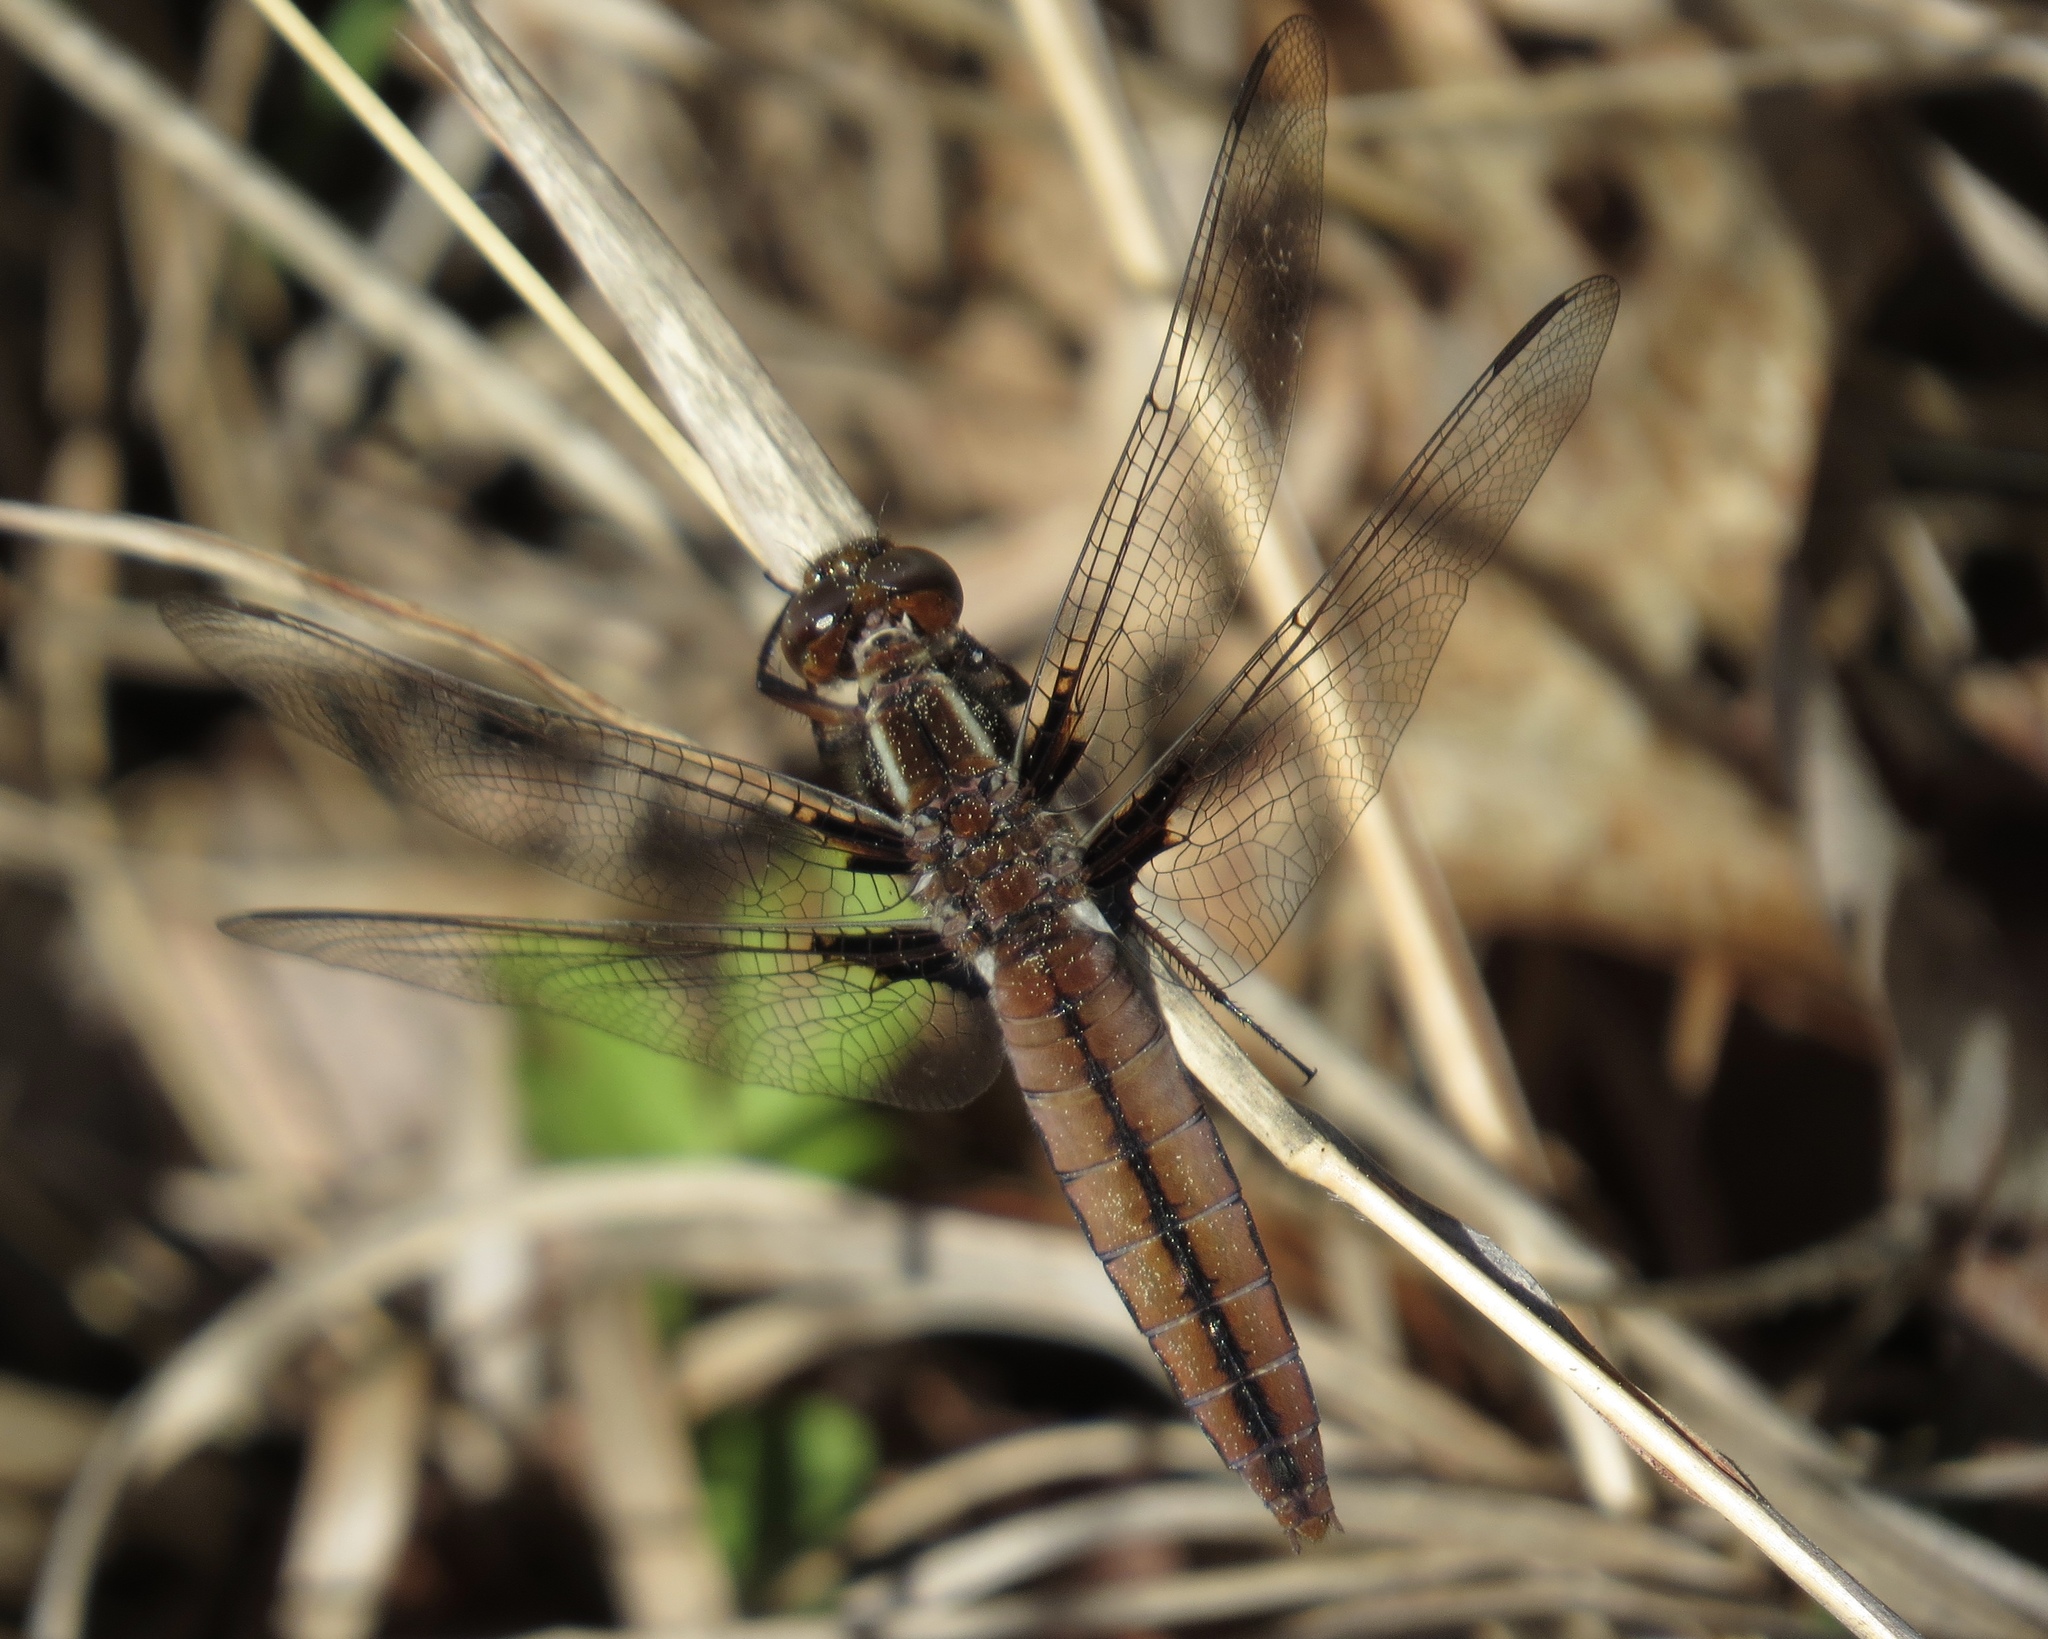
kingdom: Animalia
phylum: Arthropoda
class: Insecta
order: Odonata
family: Libellulidae
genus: Ladona
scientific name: Ladona exusta
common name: Libellule embrasée
